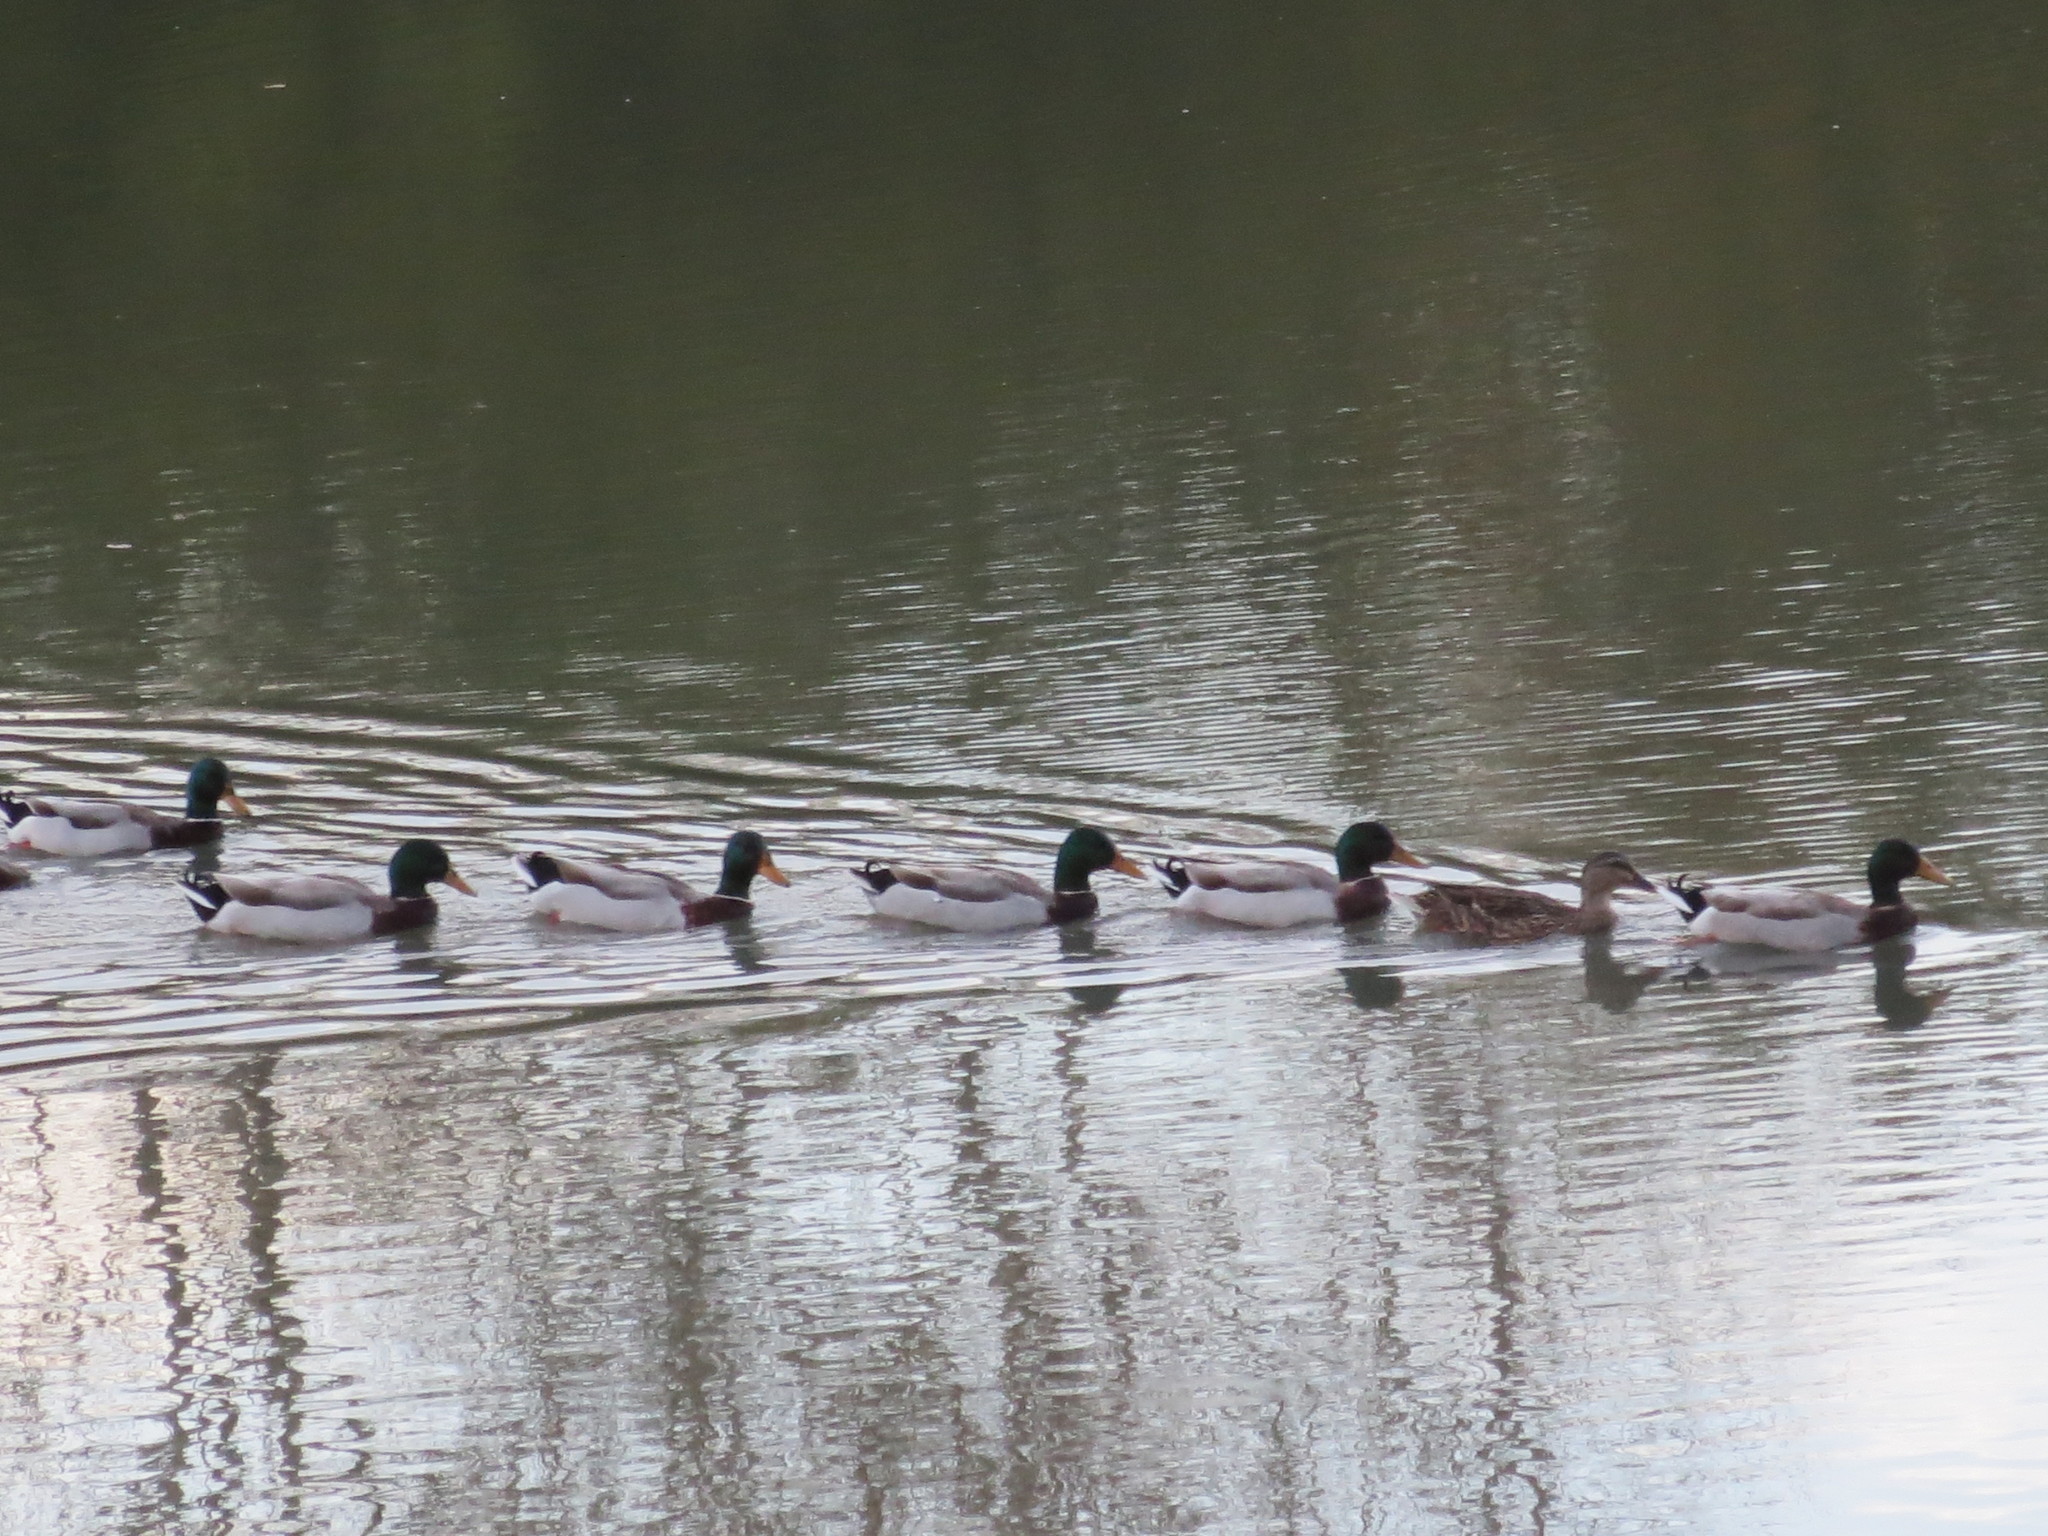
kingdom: Animalia
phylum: Chordata
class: Aves
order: Anseriformes
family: Anatidae
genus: Anas
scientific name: Anas platyrhynchos
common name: Mallard
